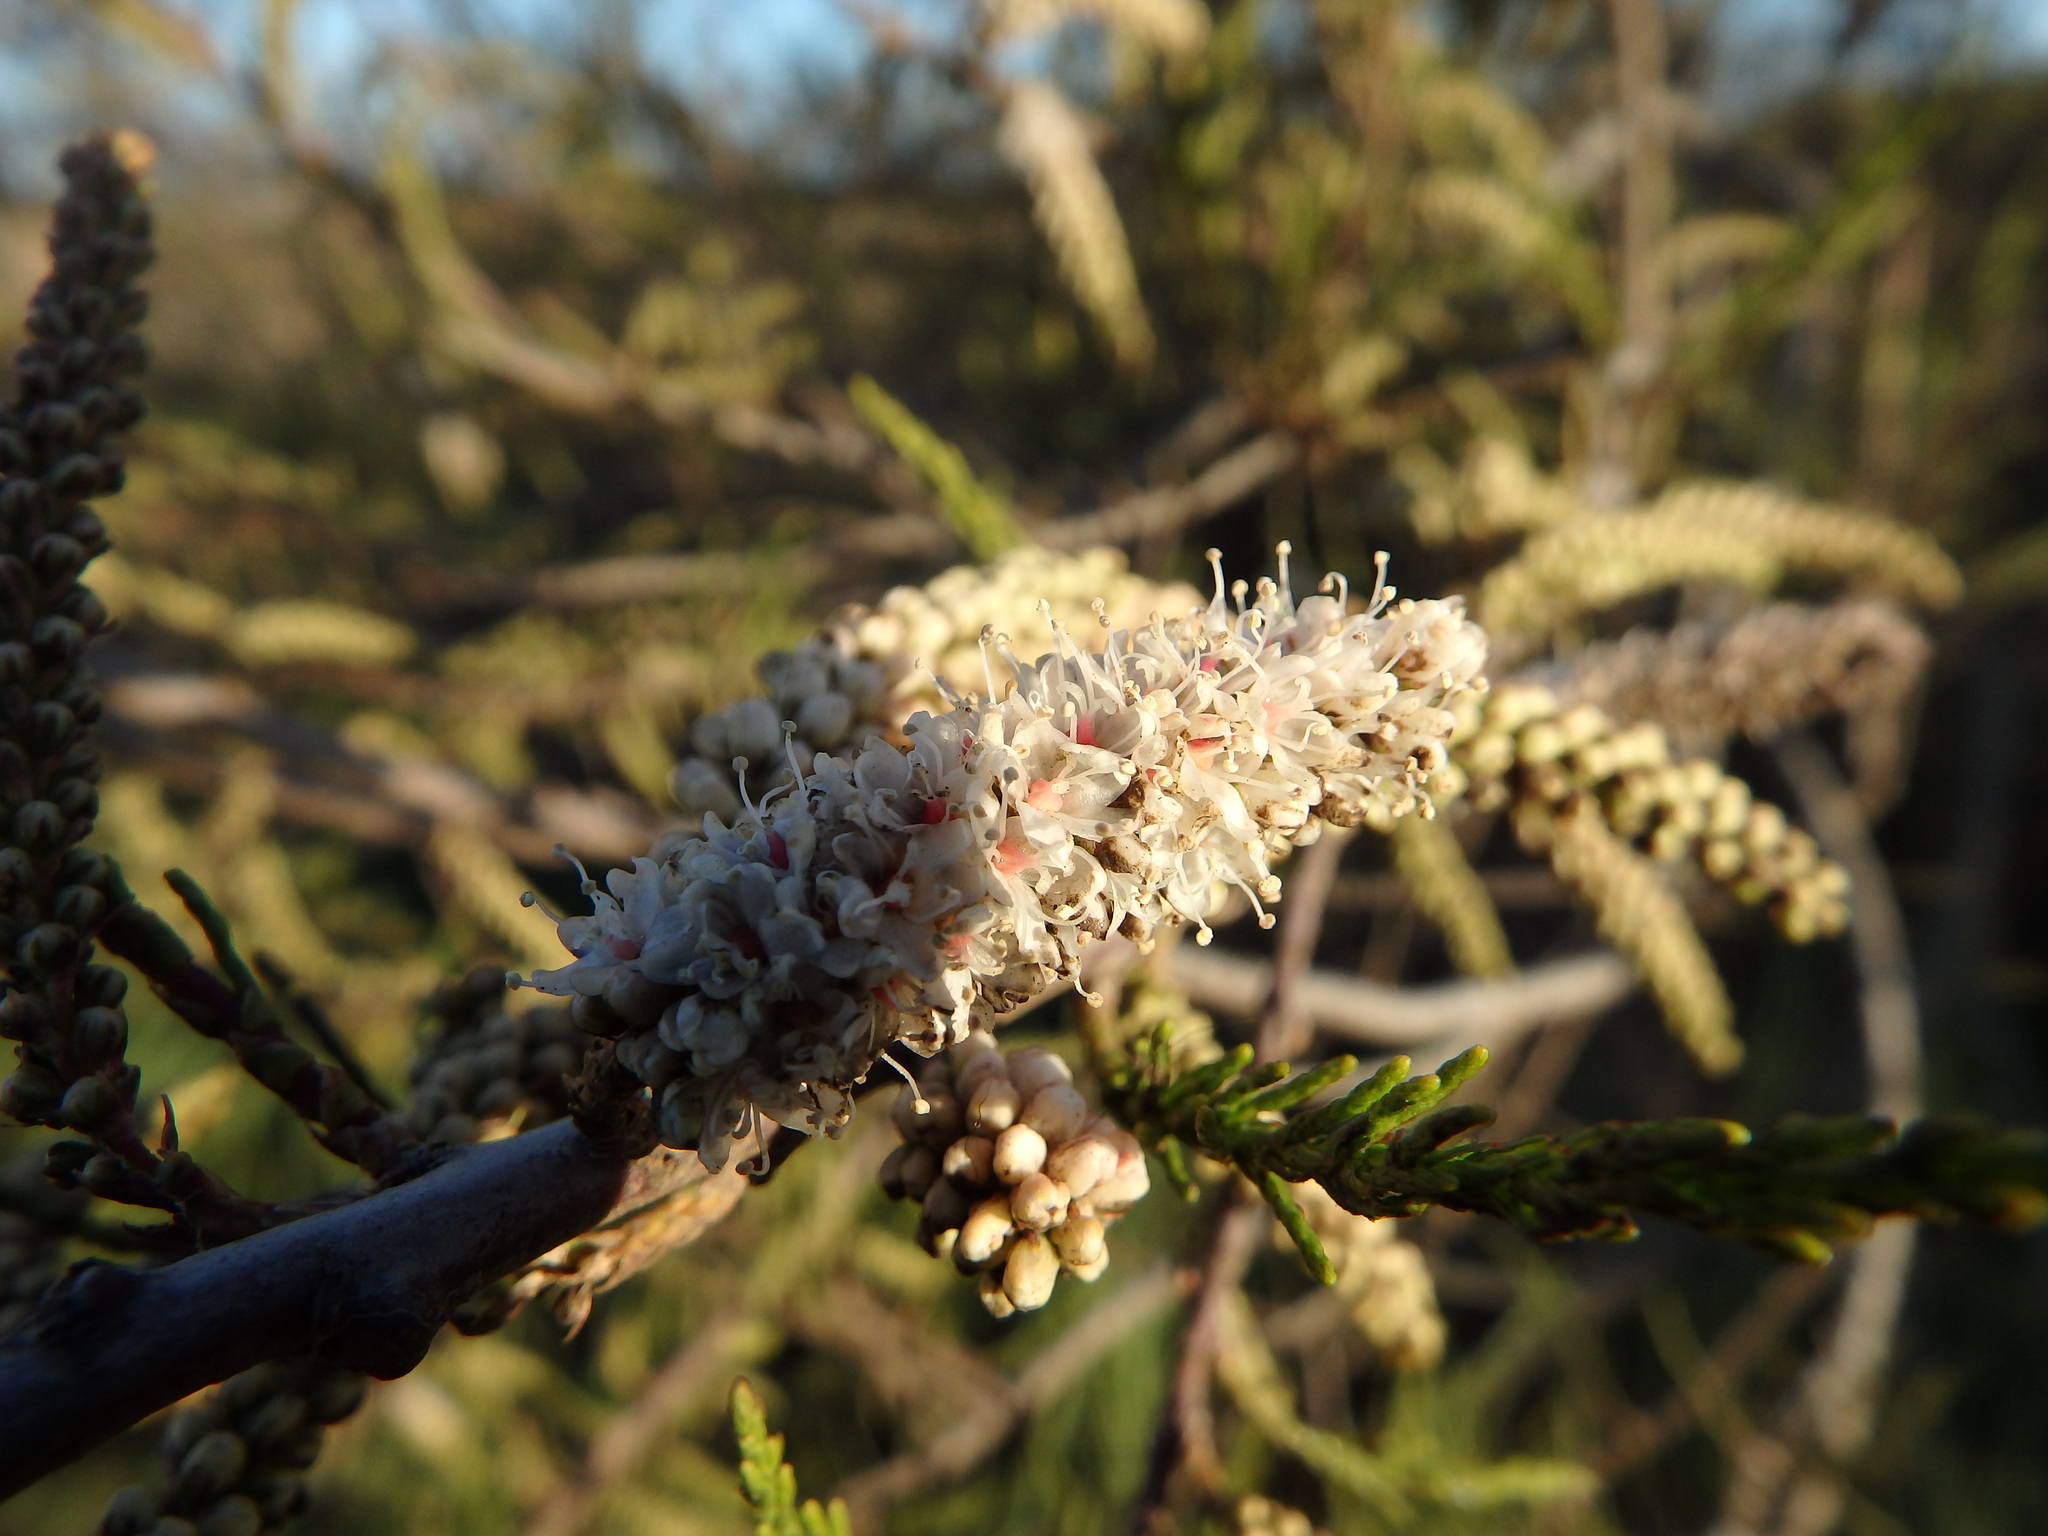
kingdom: Plantae
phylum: Tracheophyta
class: Magnoliopsida
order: Caryophyllales
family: Tamaricaceae
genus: Tamarix
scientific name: Tamarix africana
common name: African tamarisk
